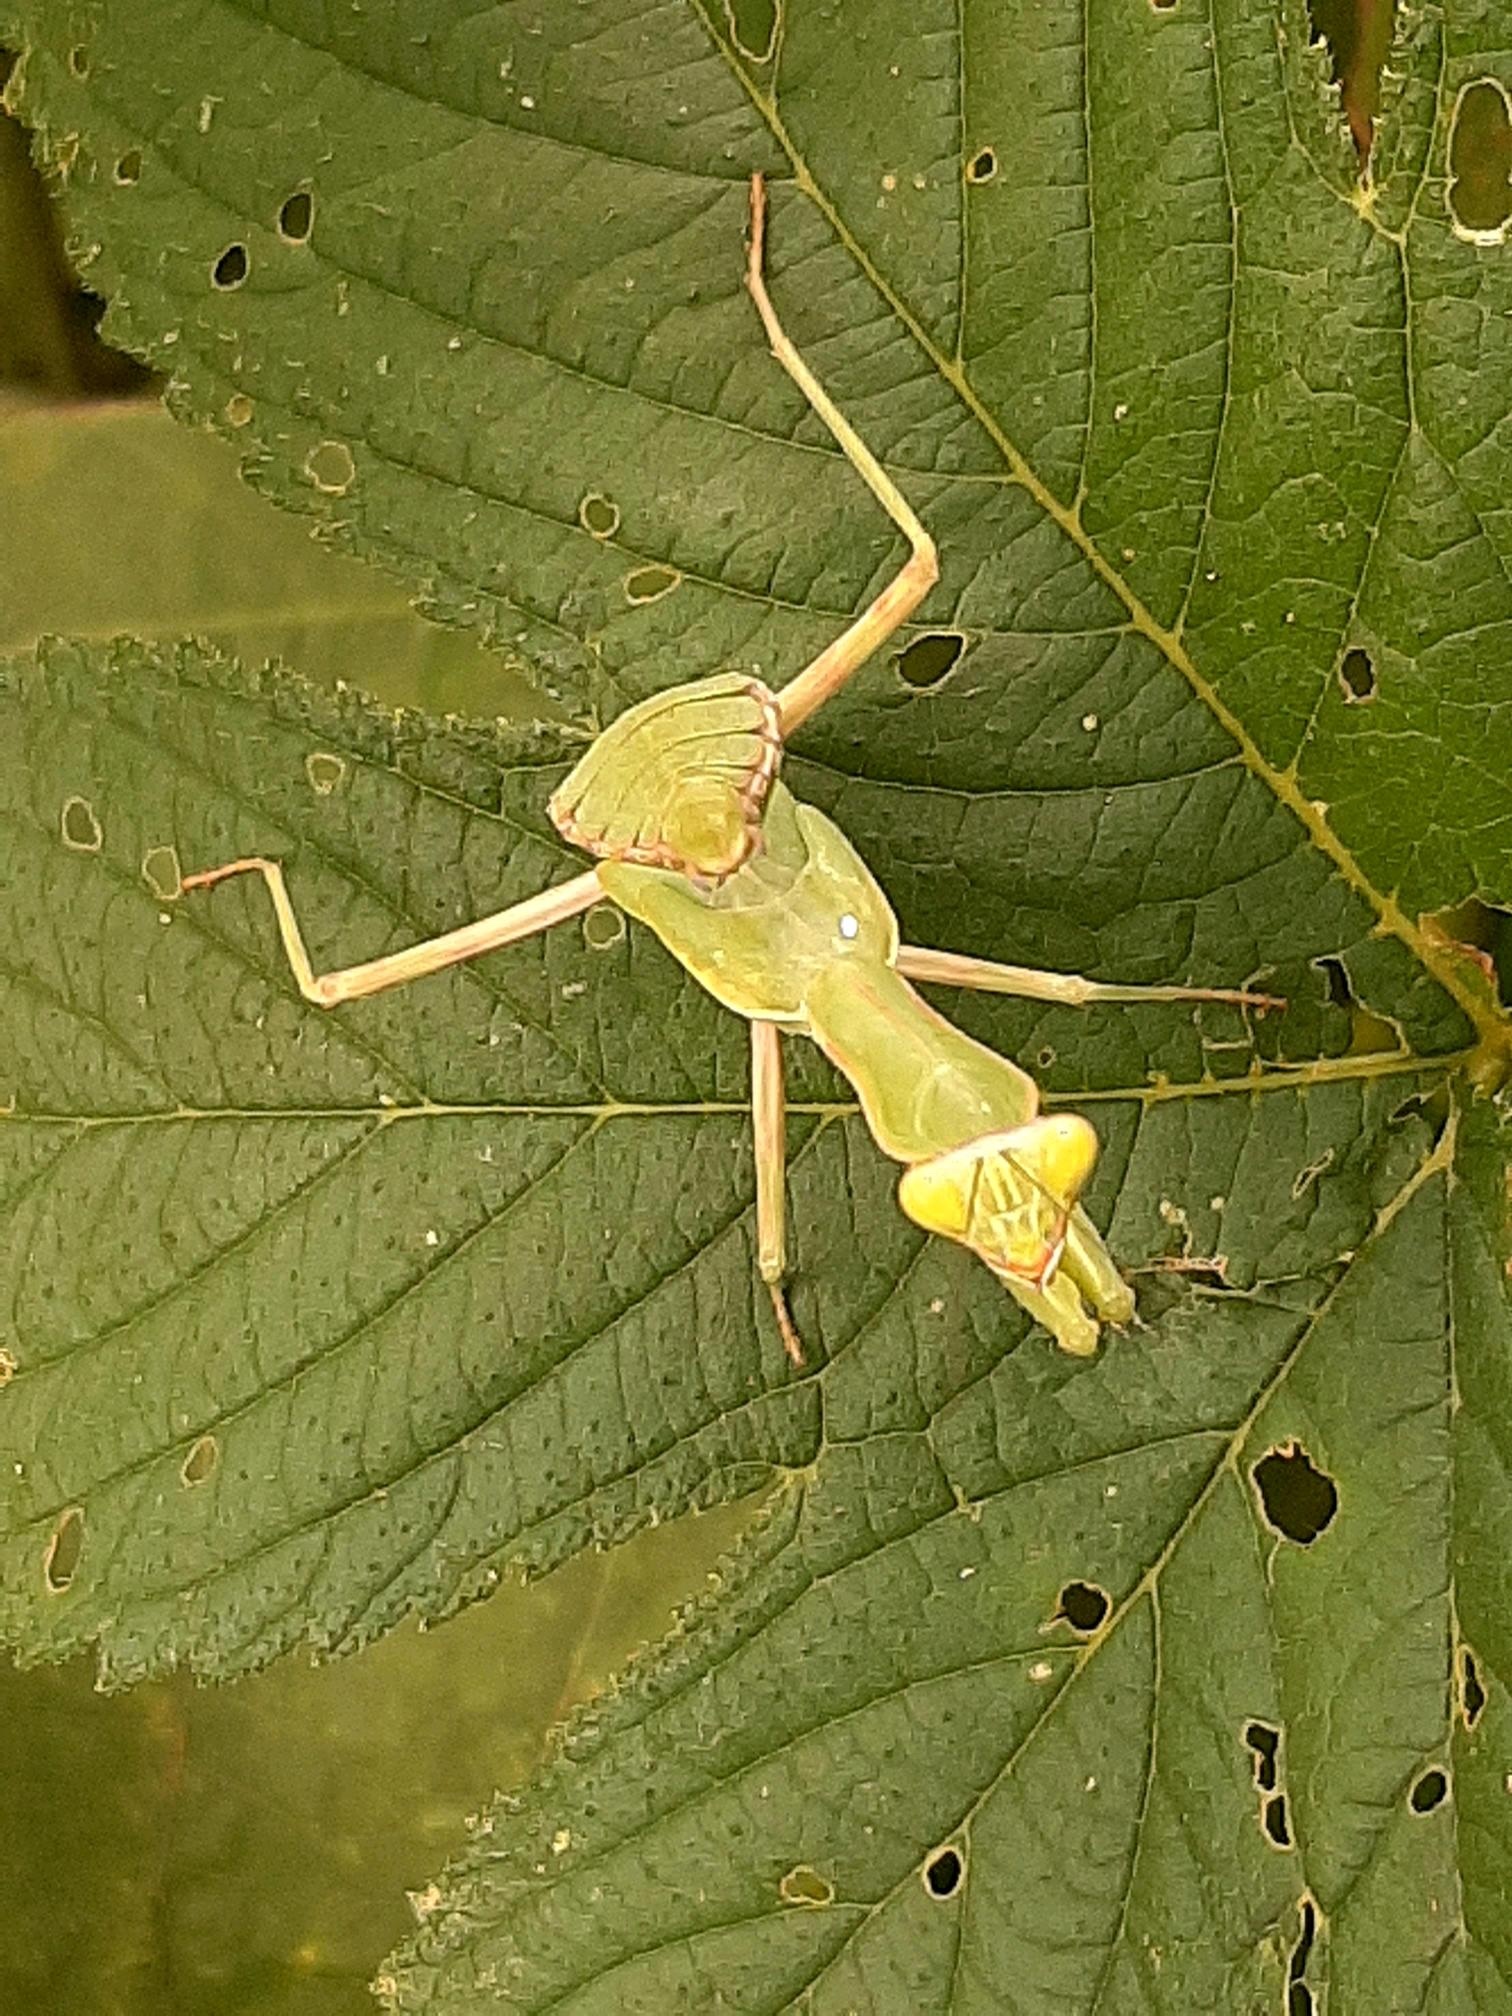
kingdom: Animalia
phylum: Arthropoda
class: Insecta
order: Mantodea
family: Mantidae
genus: Hierodula
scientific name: Hierodula patellifera
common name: Asian mantis
